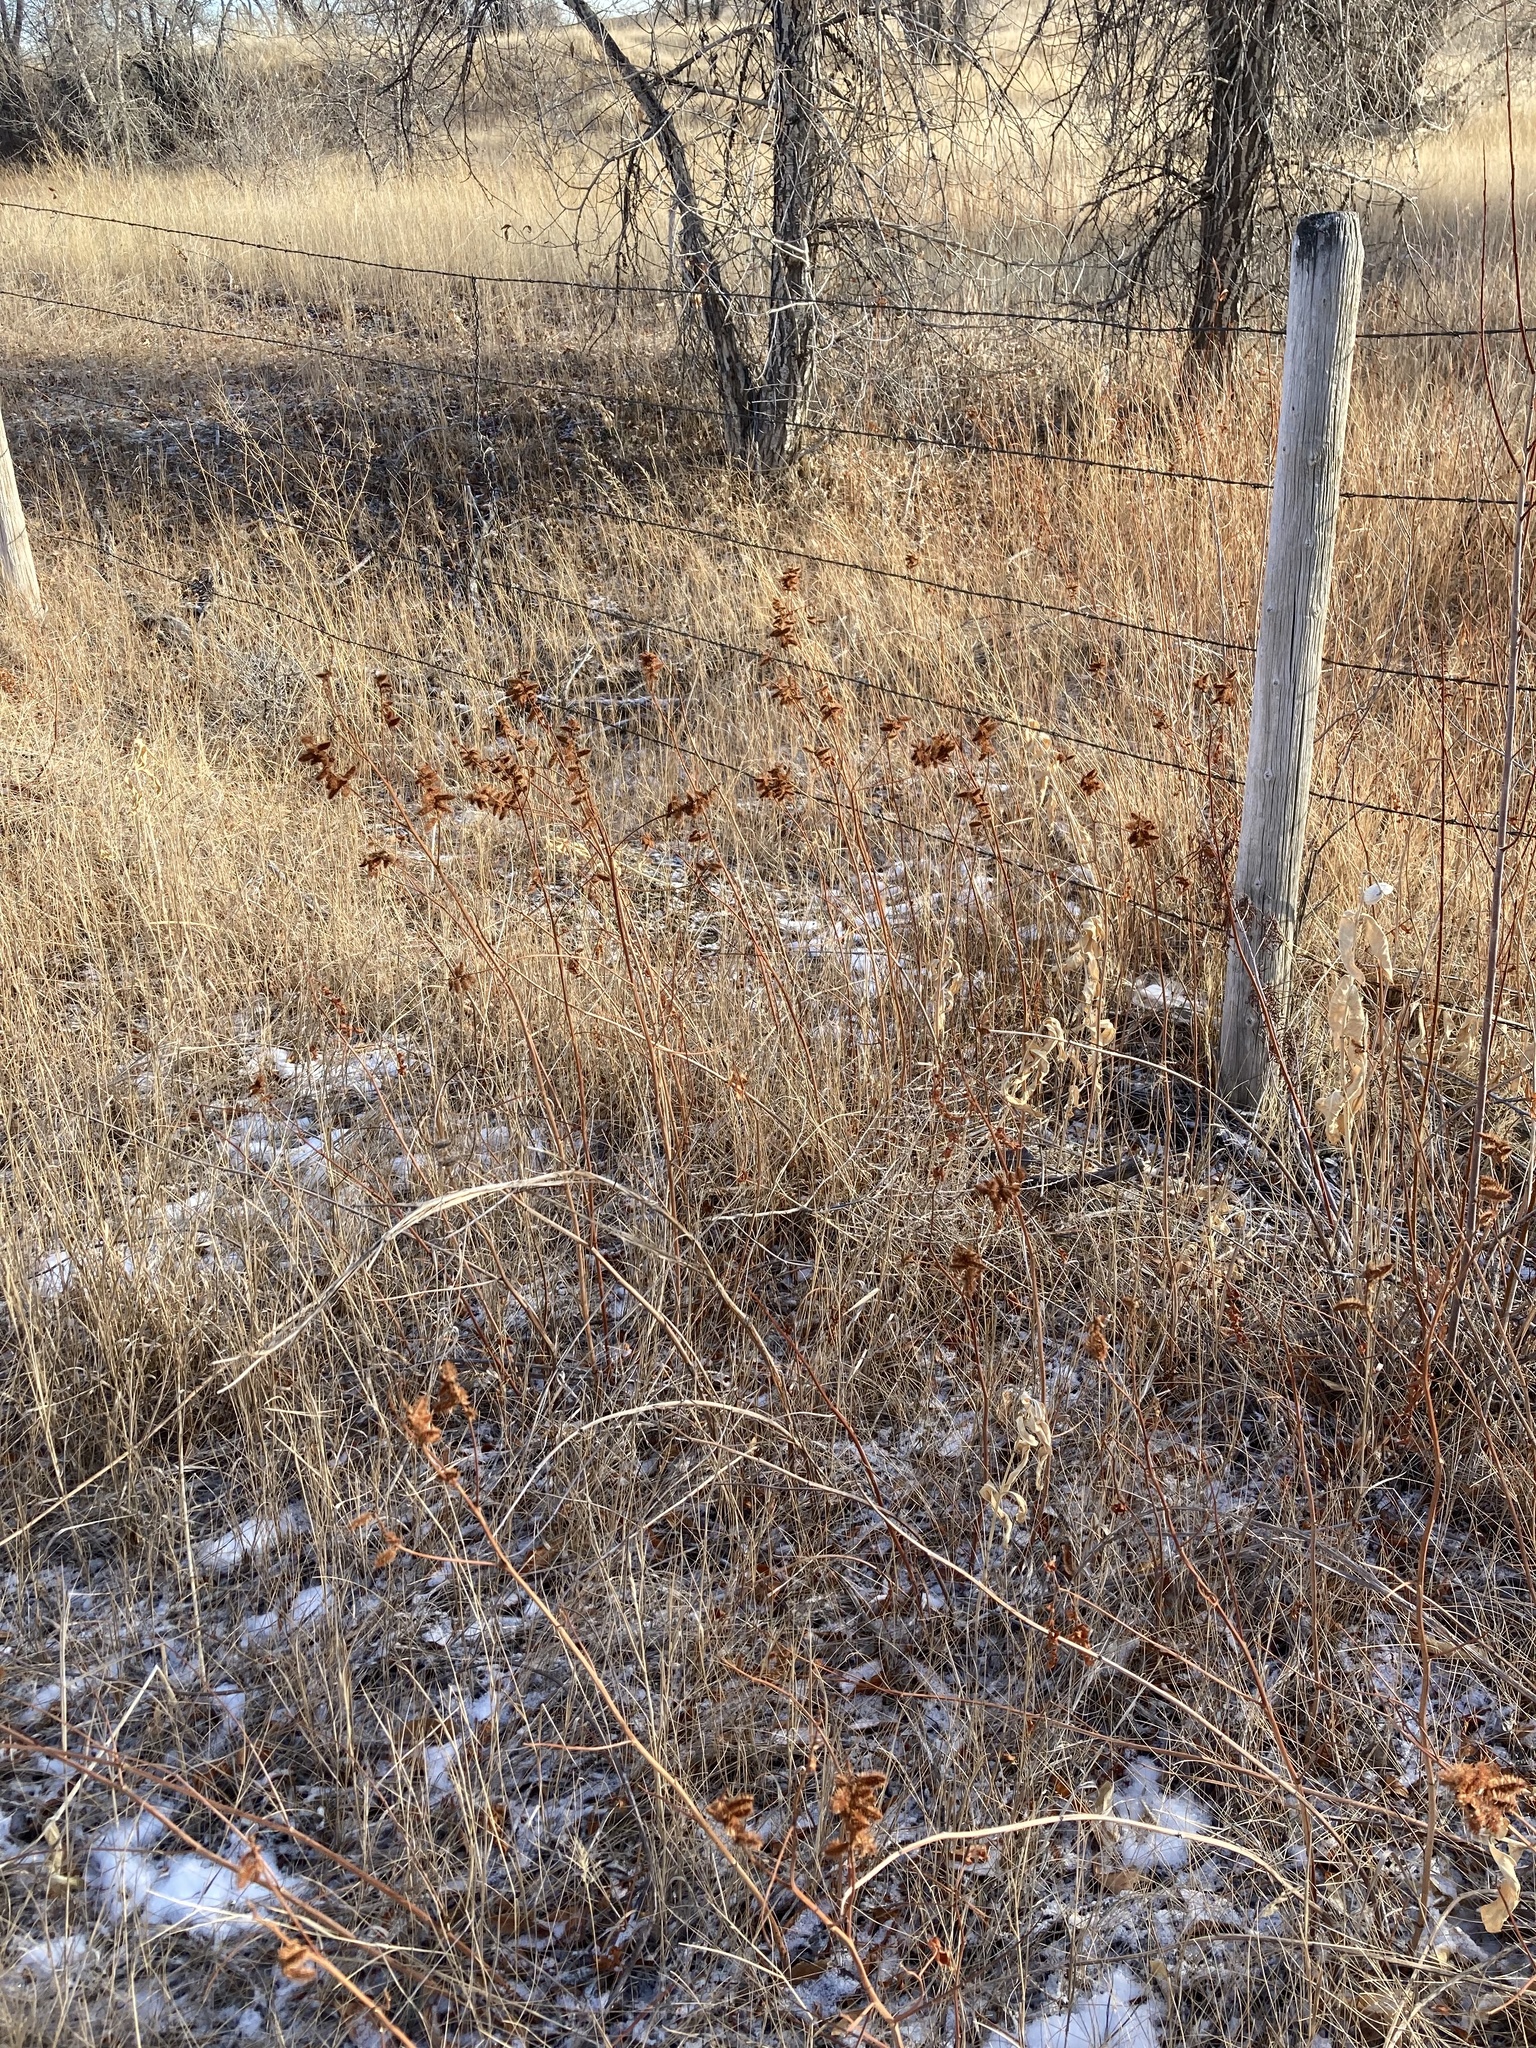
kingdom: Plantae
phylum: Tracheophyta
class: Magnoliopsida
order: Fabales
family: Fabaceae
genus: Glycyrrhiza
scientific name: Glycyrrhiza lepidota
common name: American liquorice
